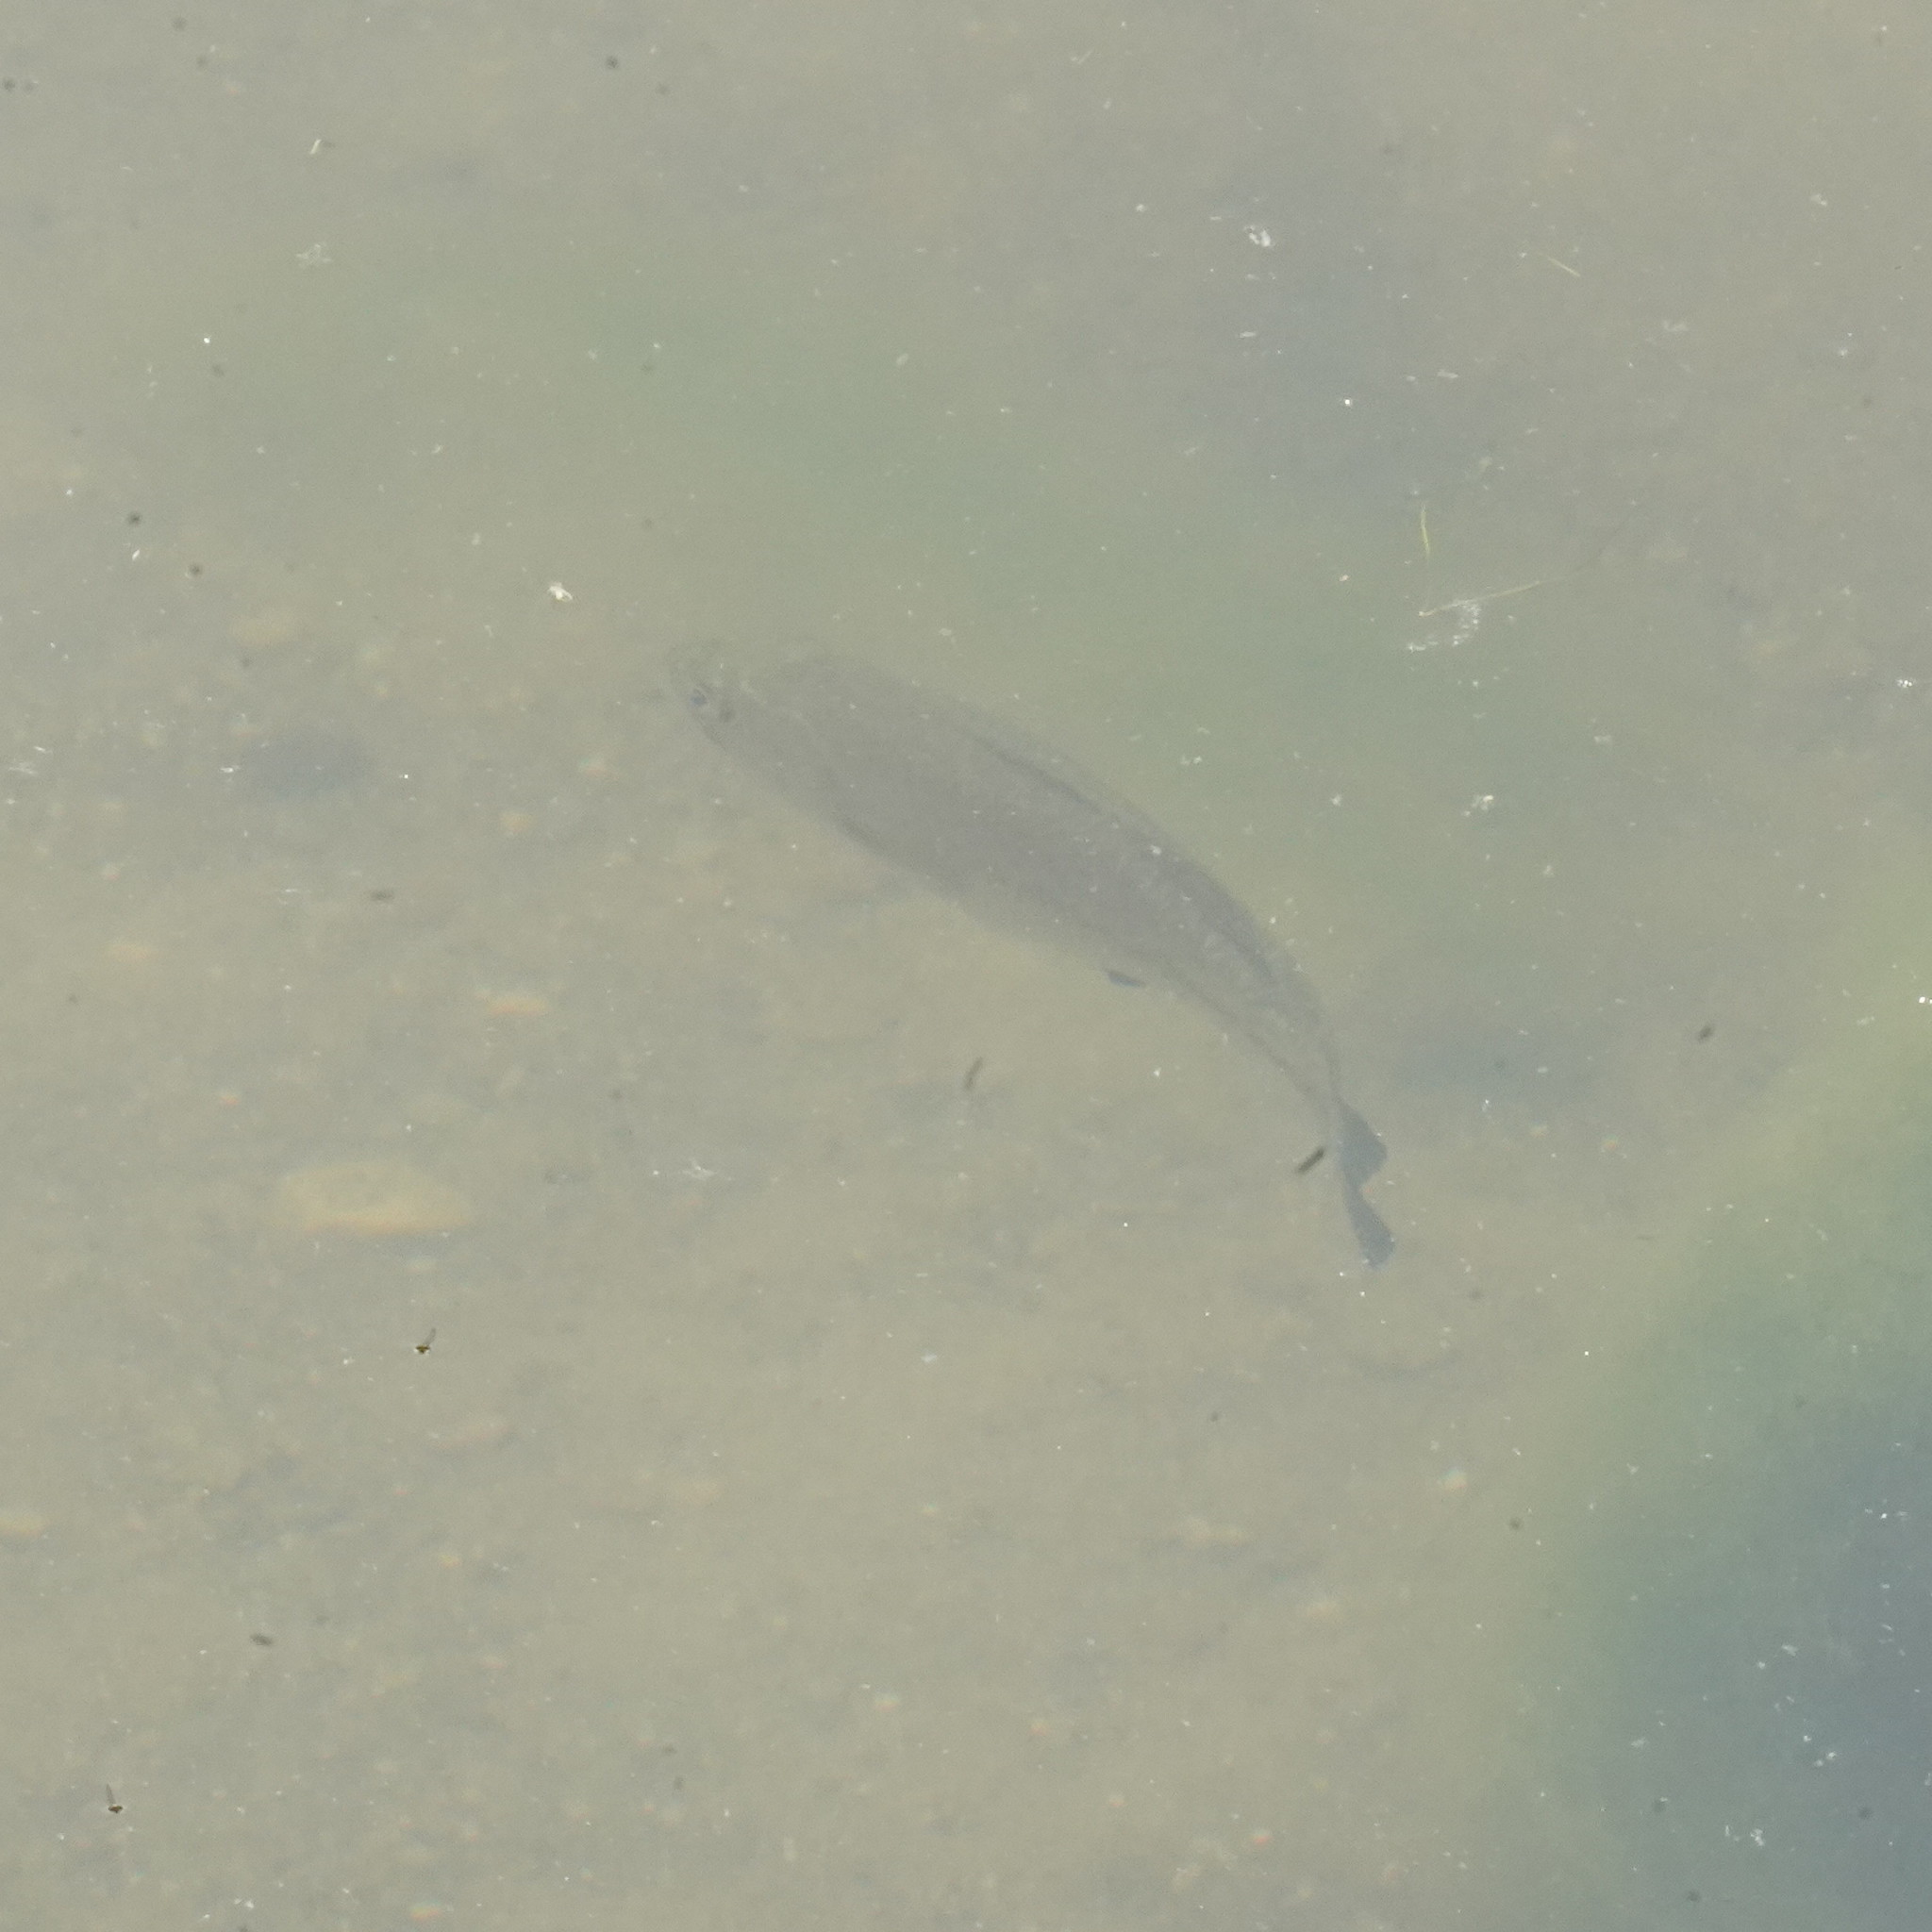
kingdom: Animalia
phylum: Chordata
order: Perciformes
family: Centrarchidae
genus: Micropterus
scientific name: Micropterus
